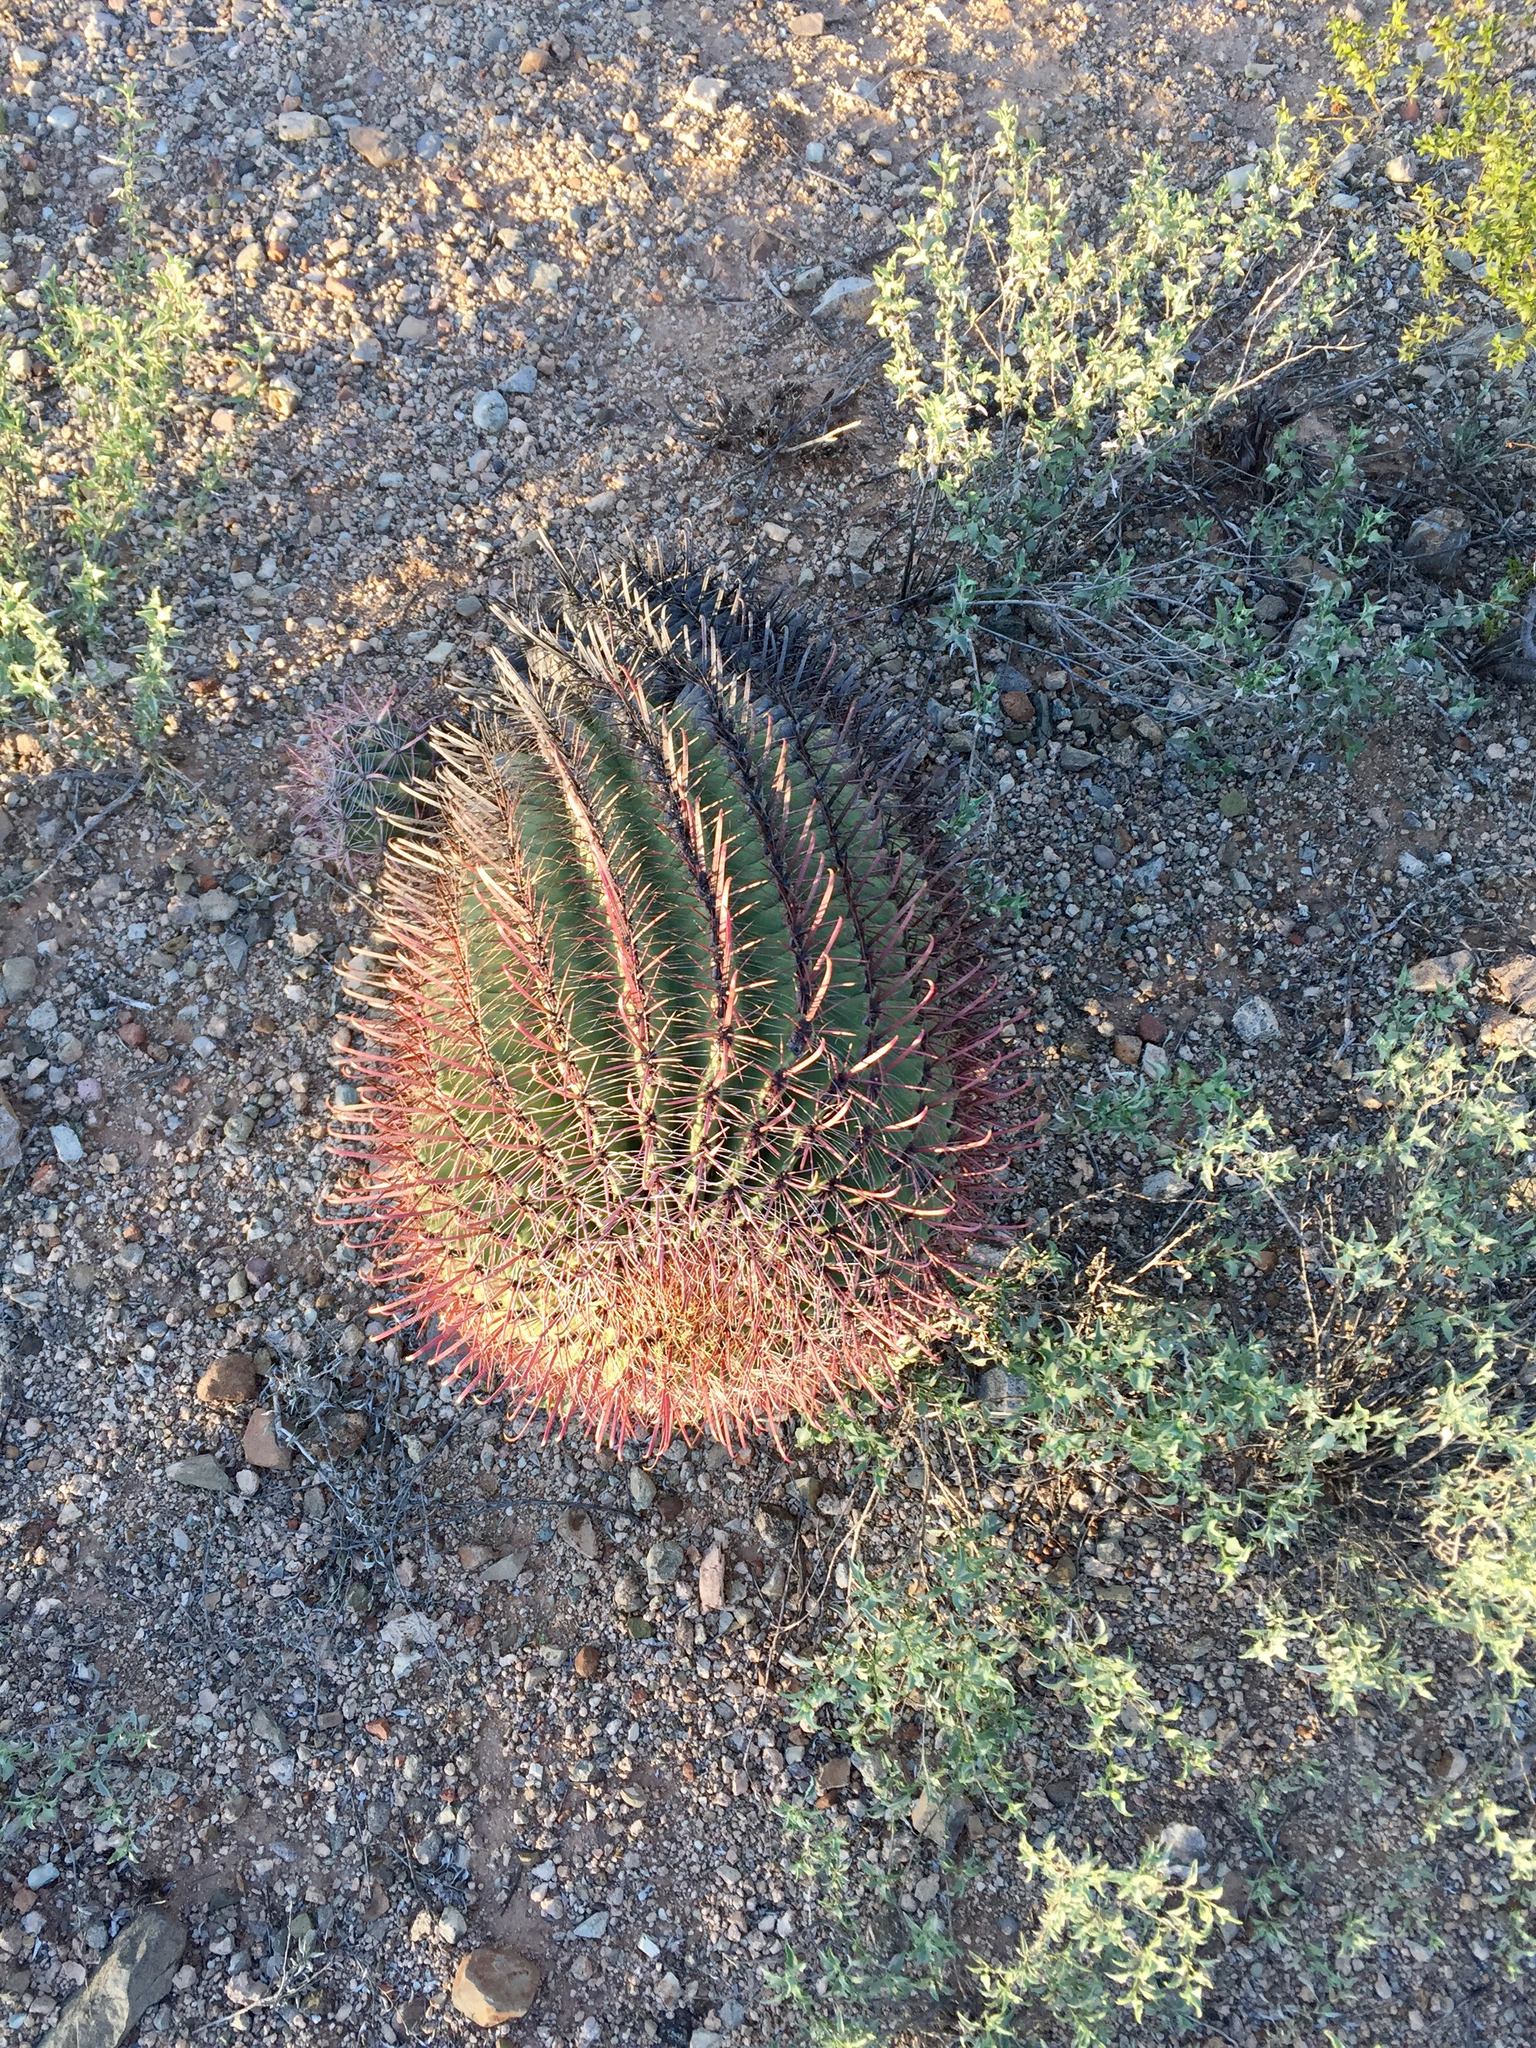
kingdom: Plantae
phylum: Tracheophyta
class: Magnoliopsida
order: Caryophyllales
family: Cactaceae
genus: Ferocactus
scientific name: Ferocactus wislizeni
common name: Candy barrel cactus
